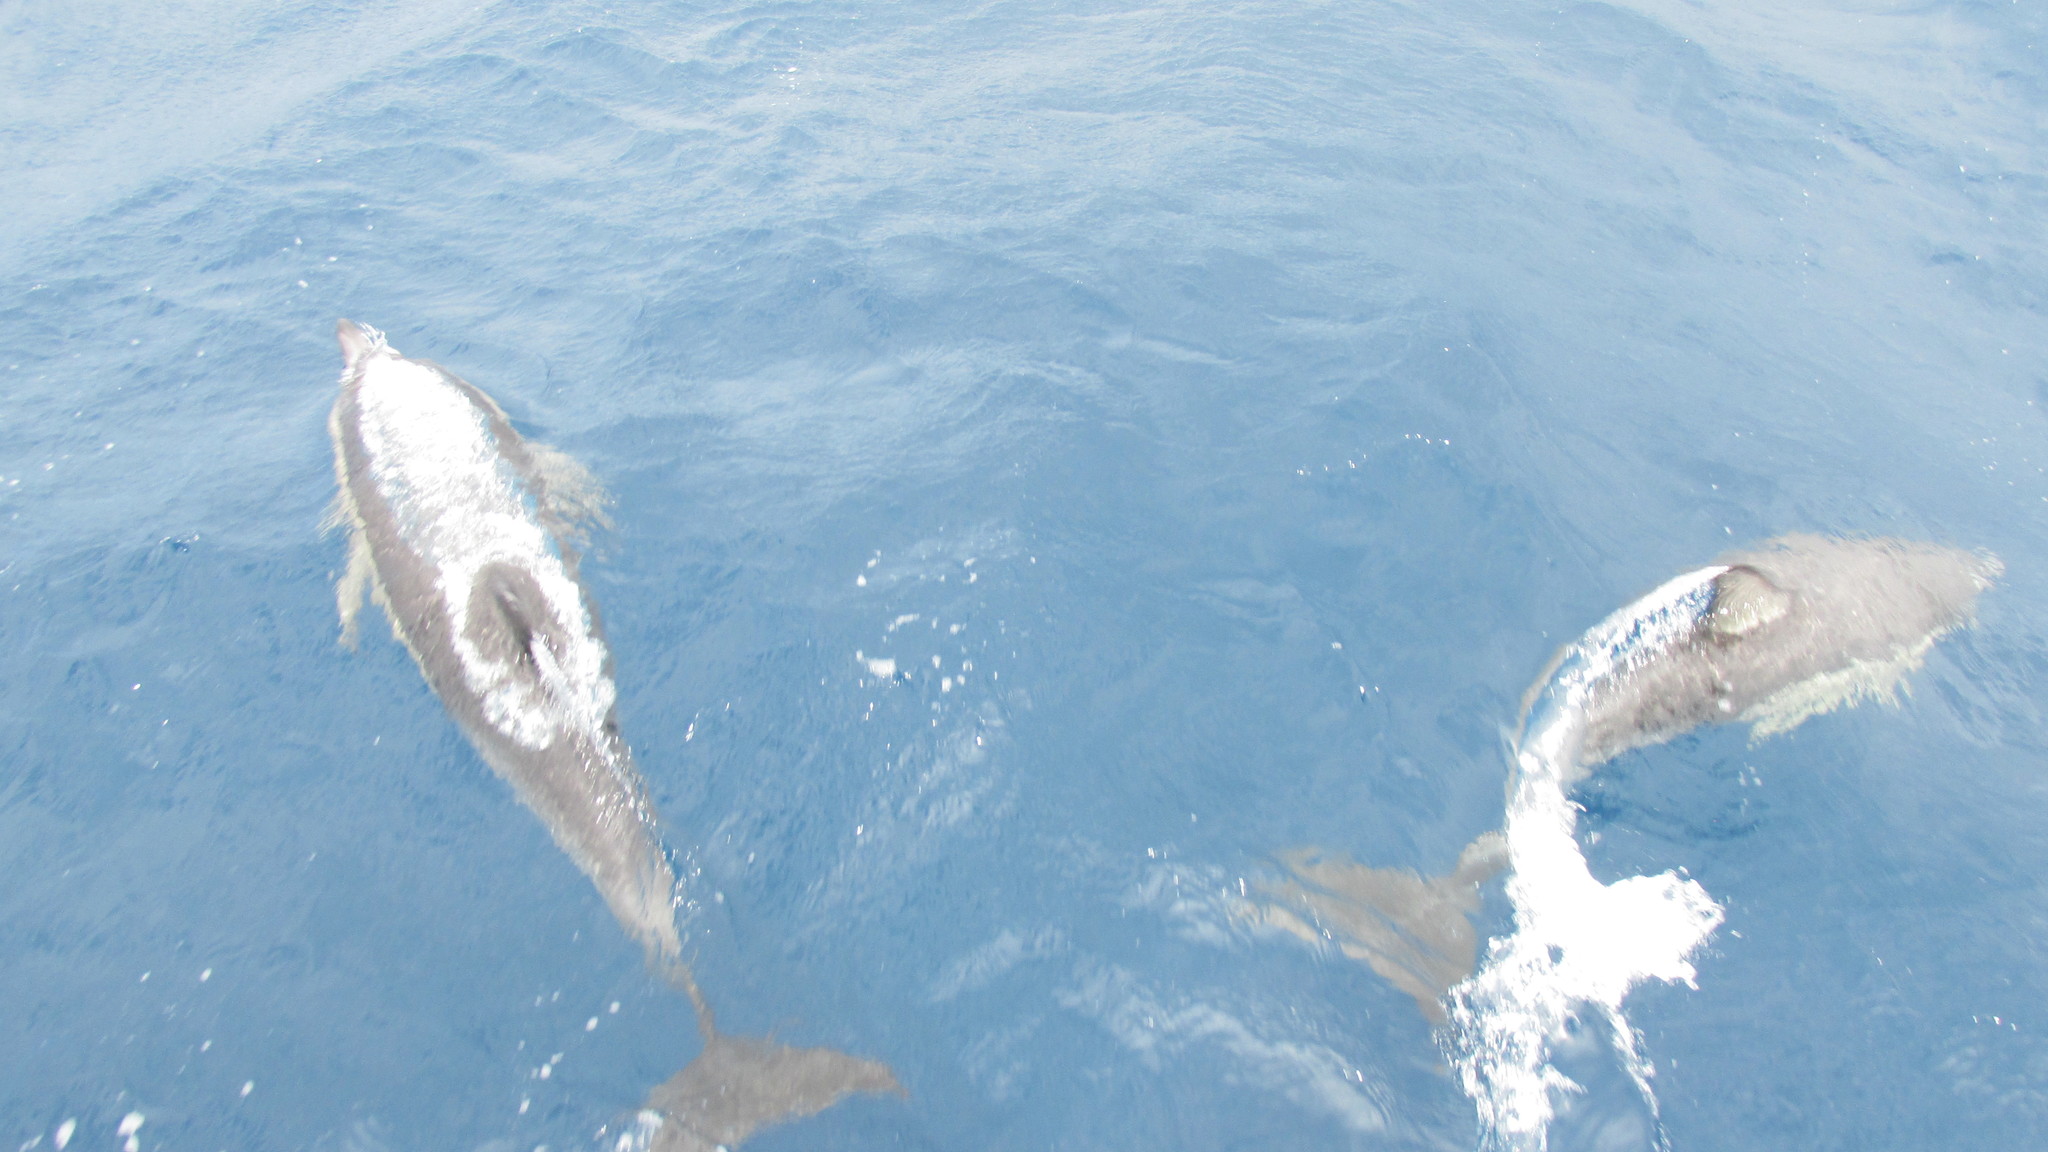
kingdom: Animalia
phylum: Chordata
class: Mammalia
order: Cetacea
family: Delphinidae
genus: Delphinus
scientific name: Delphinus delphis
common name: Common dolphin
